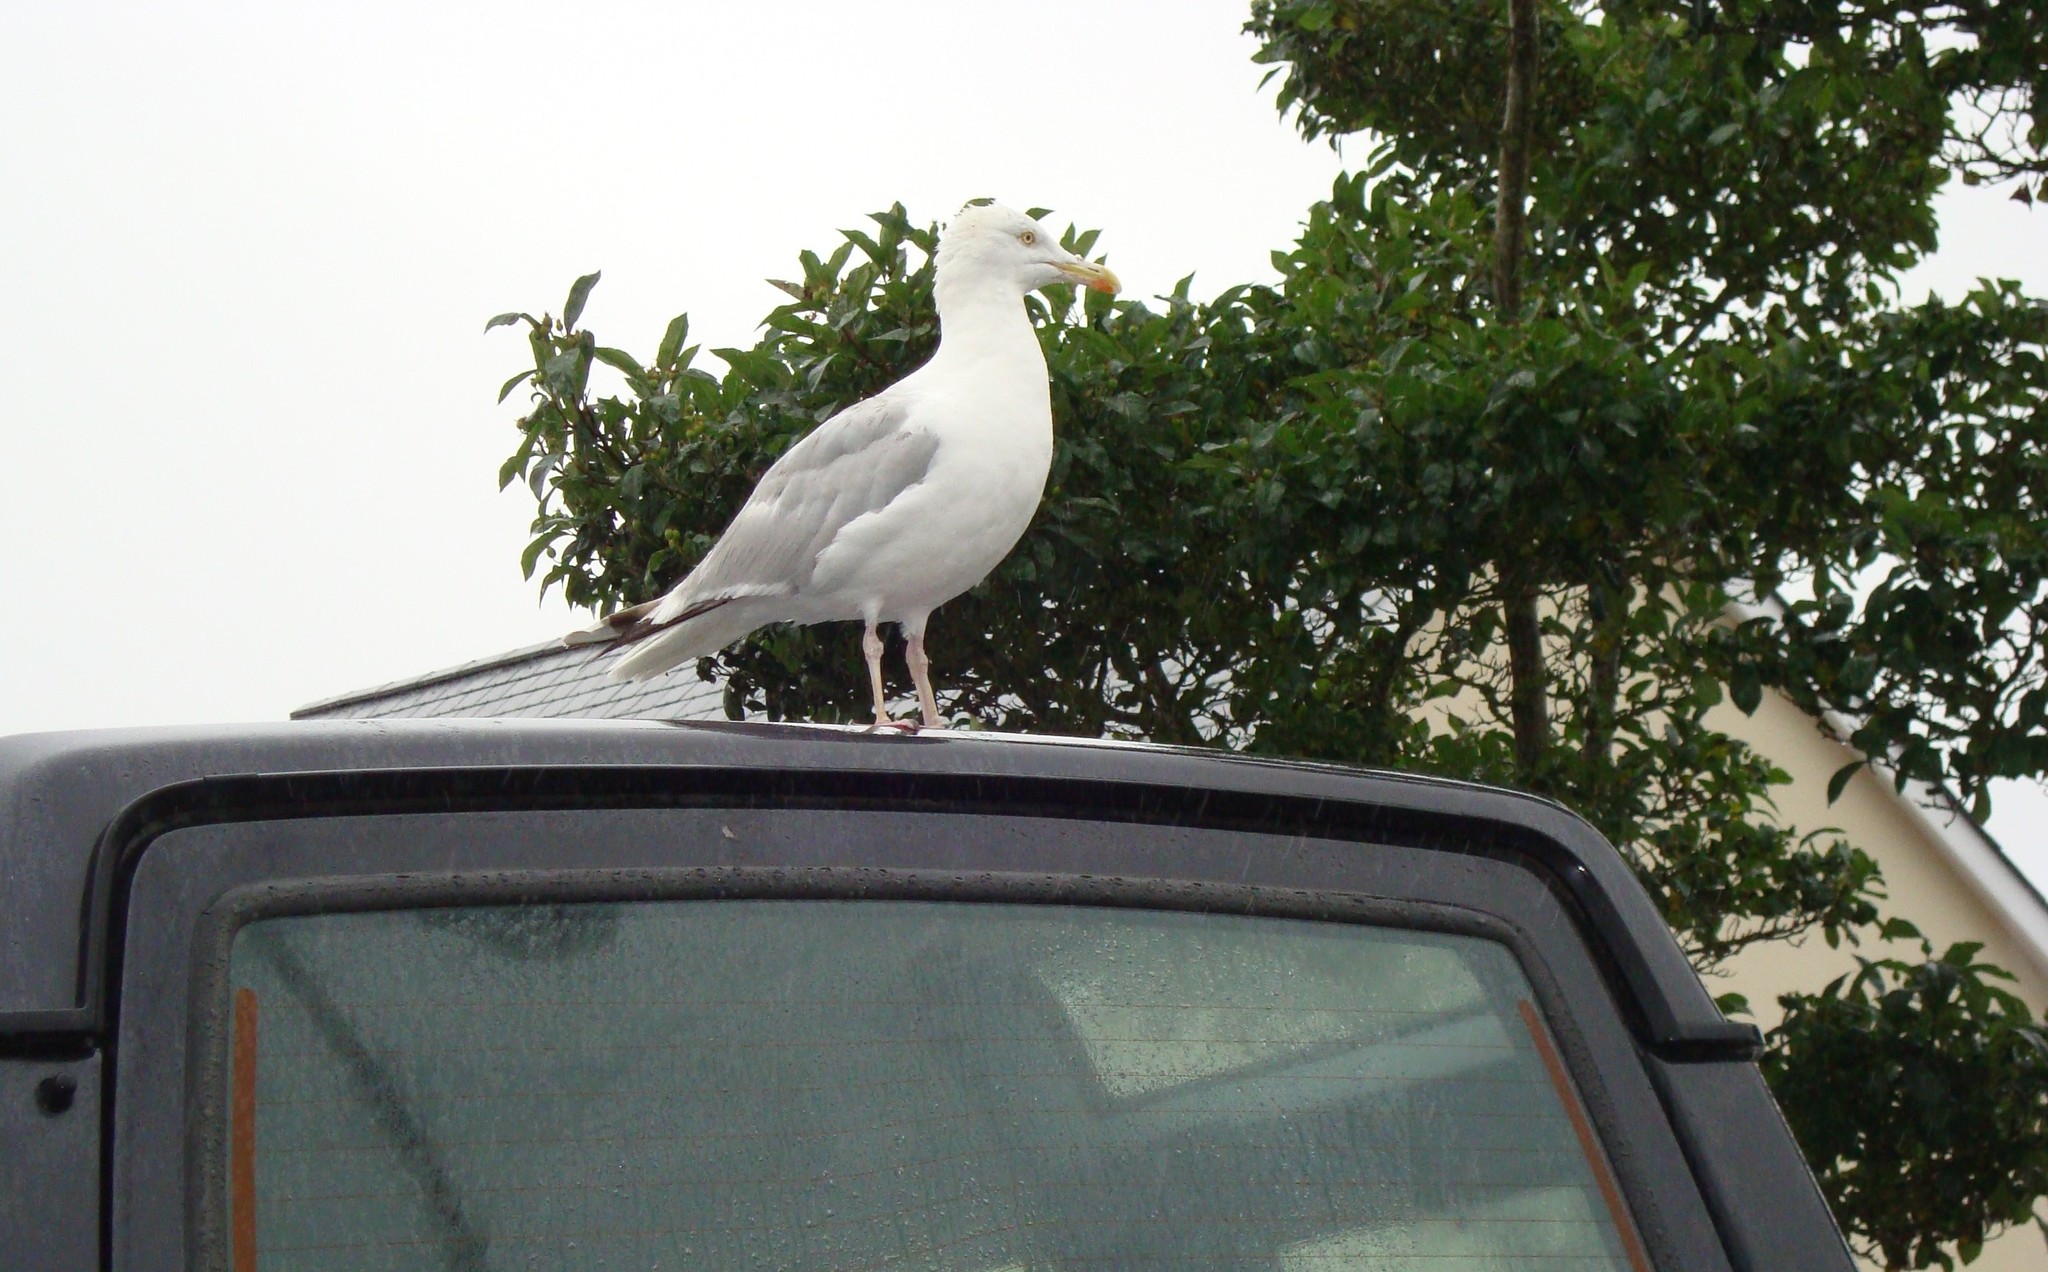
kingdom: Animalia
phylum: Chordata
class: Aves
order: Charadriiformes
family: Laridae
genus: Larus
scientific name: Larus argentatus
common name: Herring gull
